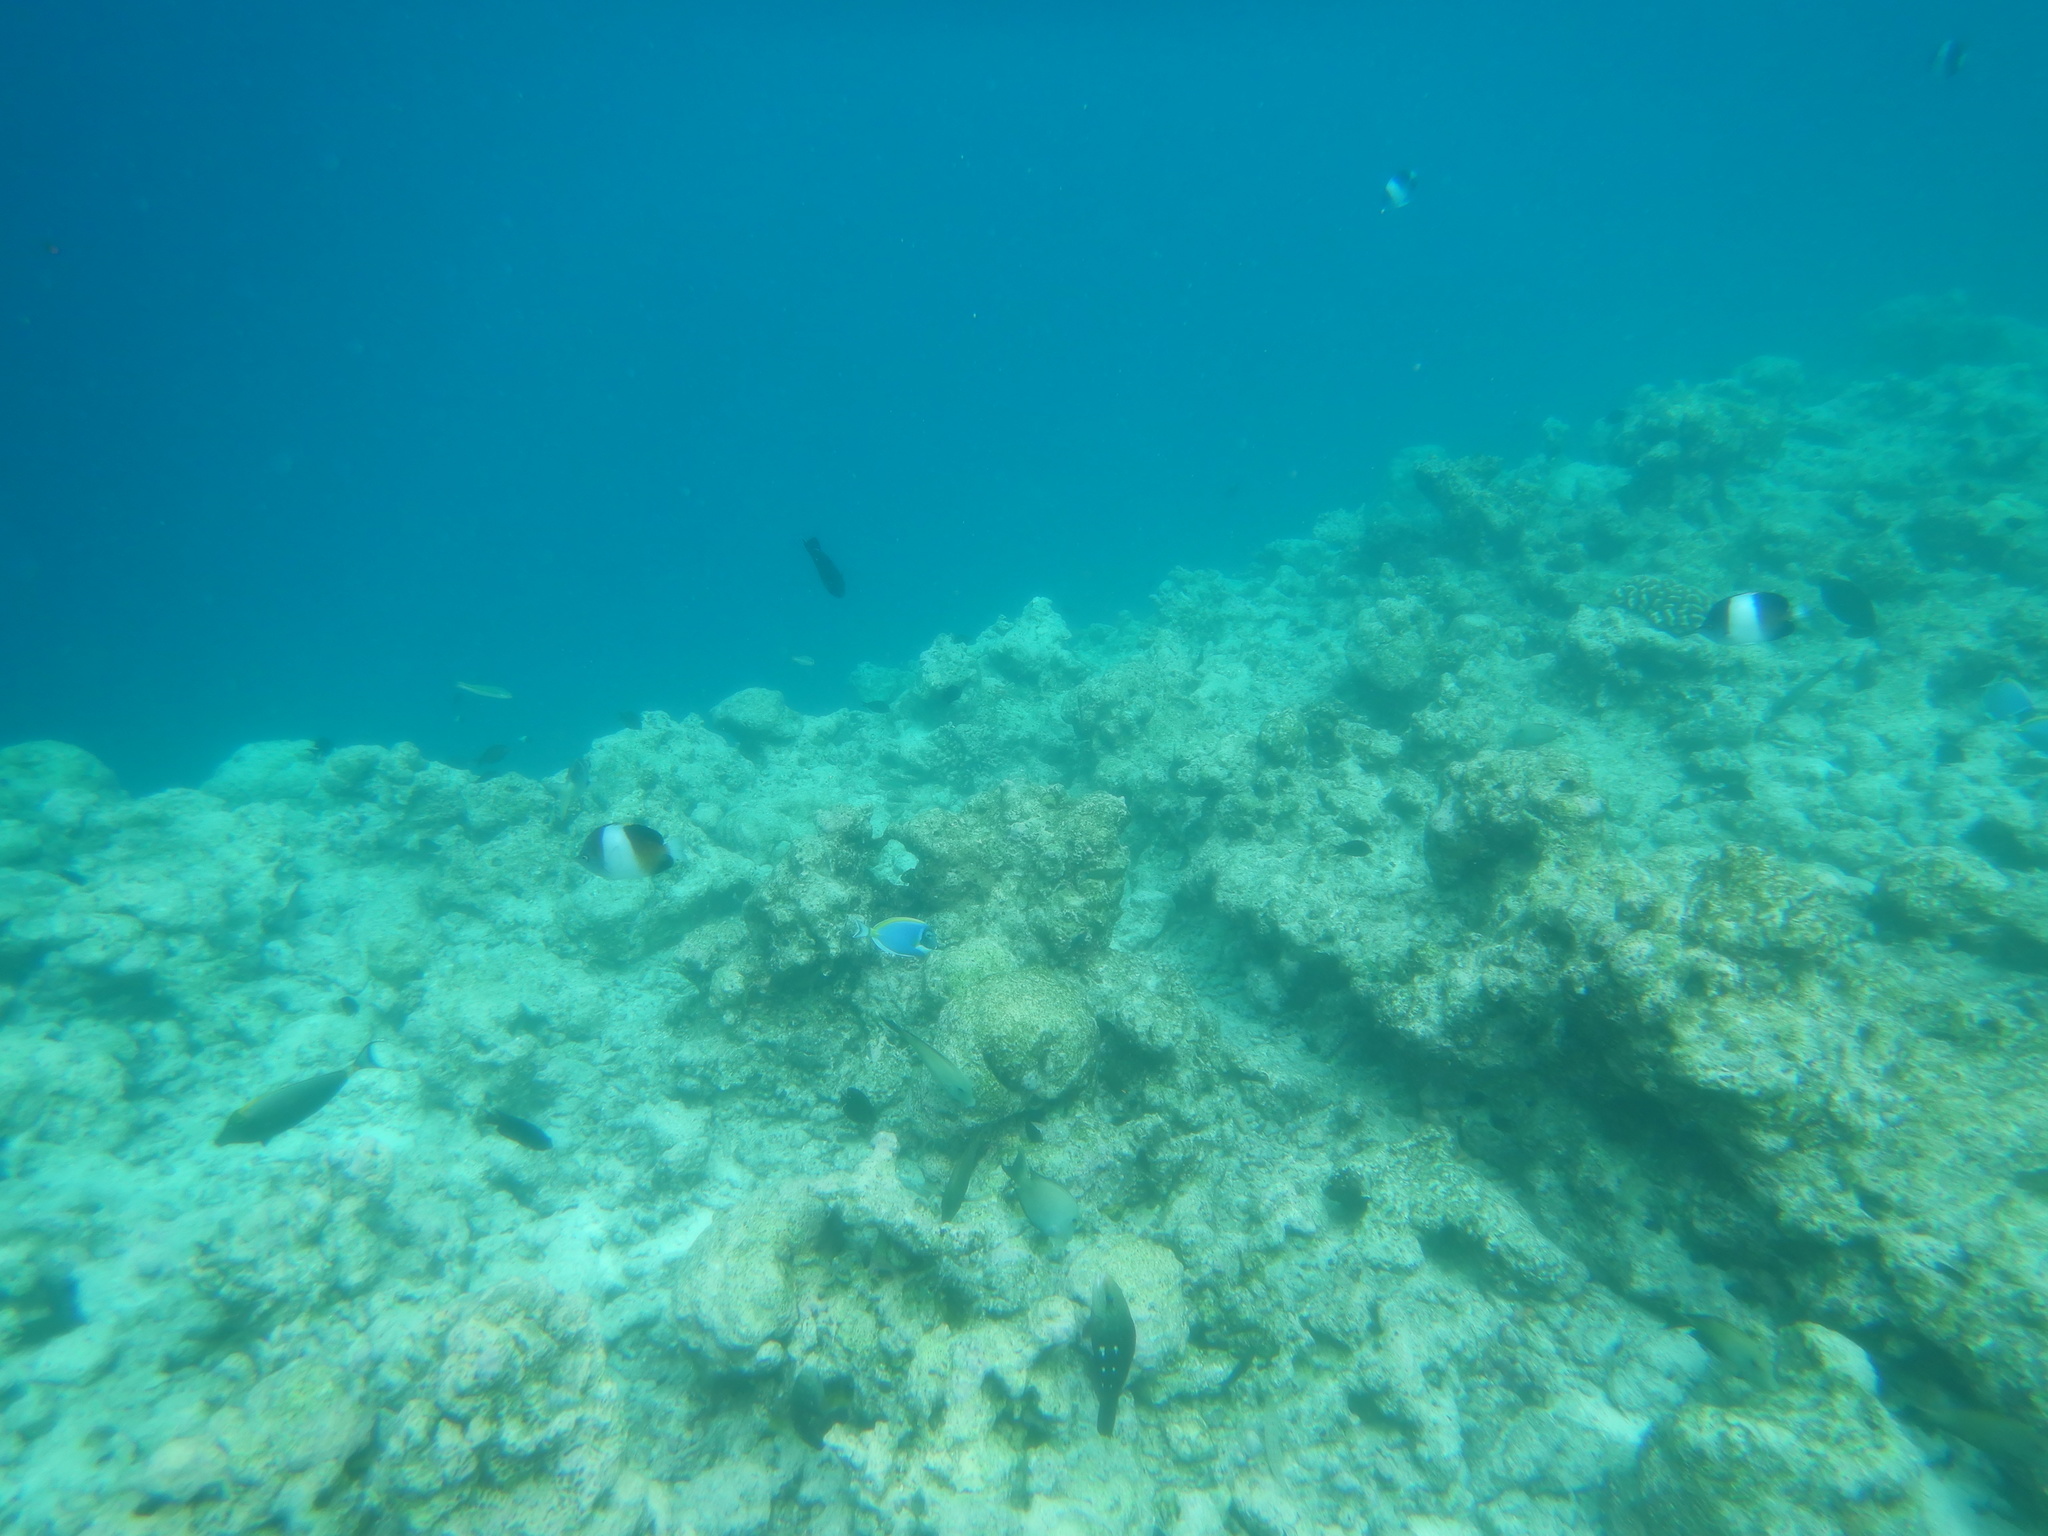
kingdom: Animalia
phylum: Chordata
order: Perciformes
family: Chaetodontidae
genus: Hemitaurichthys
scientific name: Hemitaurichthys zoster
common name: Brown-and-white butterflyfish
